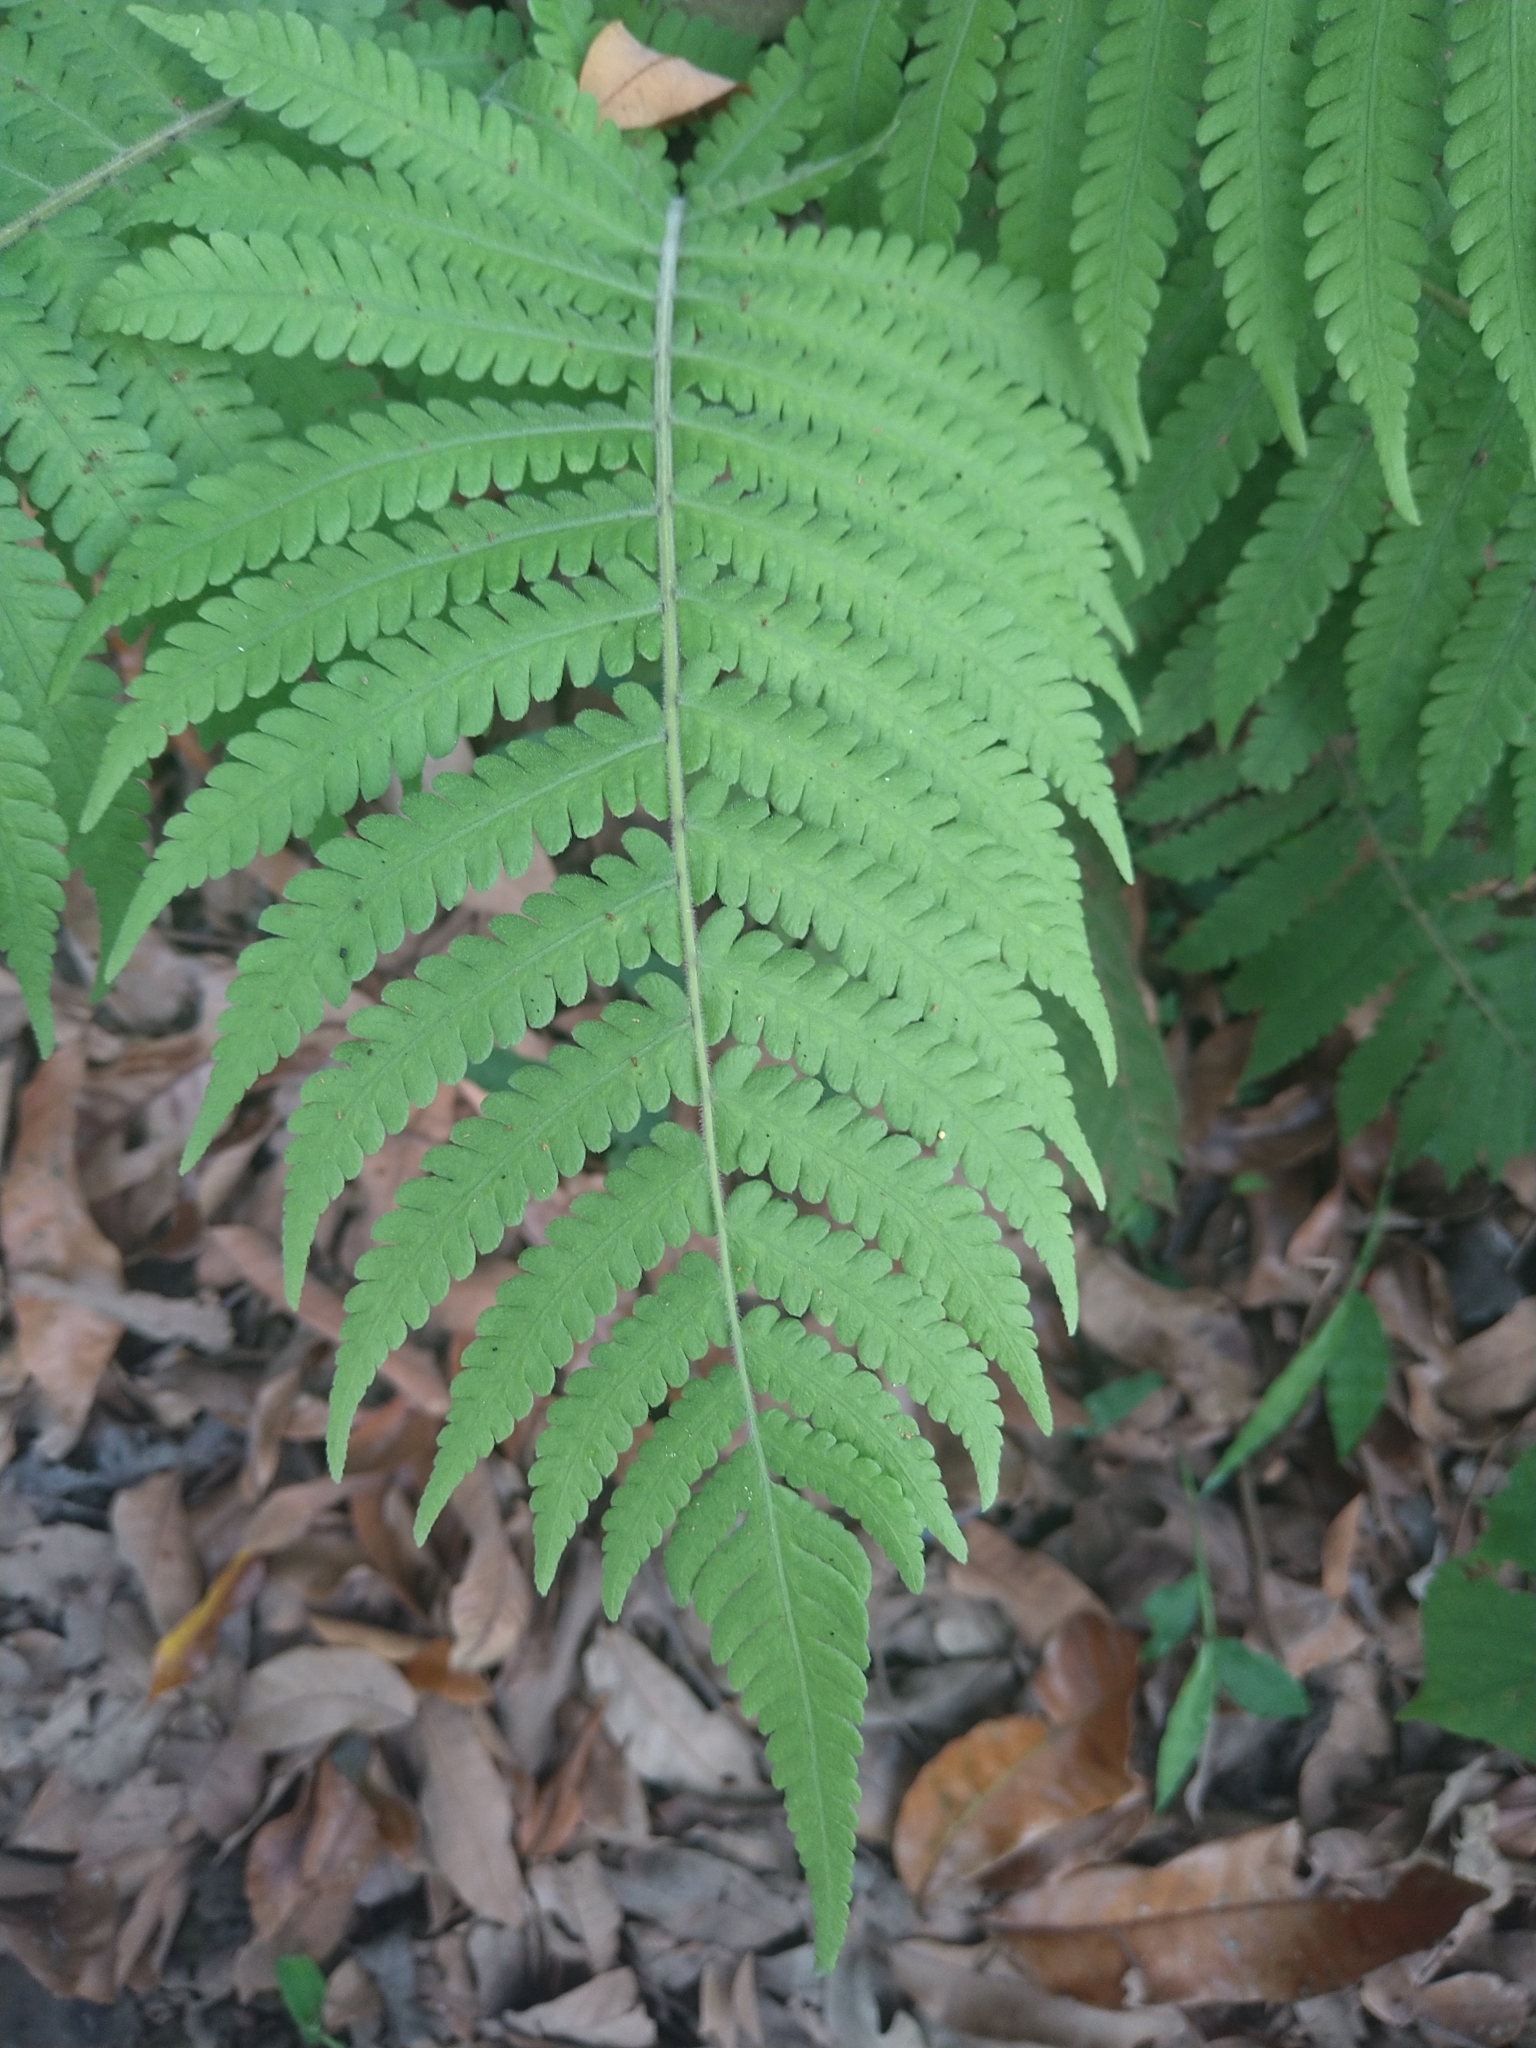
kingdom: Plantae
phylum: Tracheophyta
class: Polypodiopsida
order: Polypodiales
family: Thelypteridaceae
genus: Christella
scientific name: Christella parasitica
